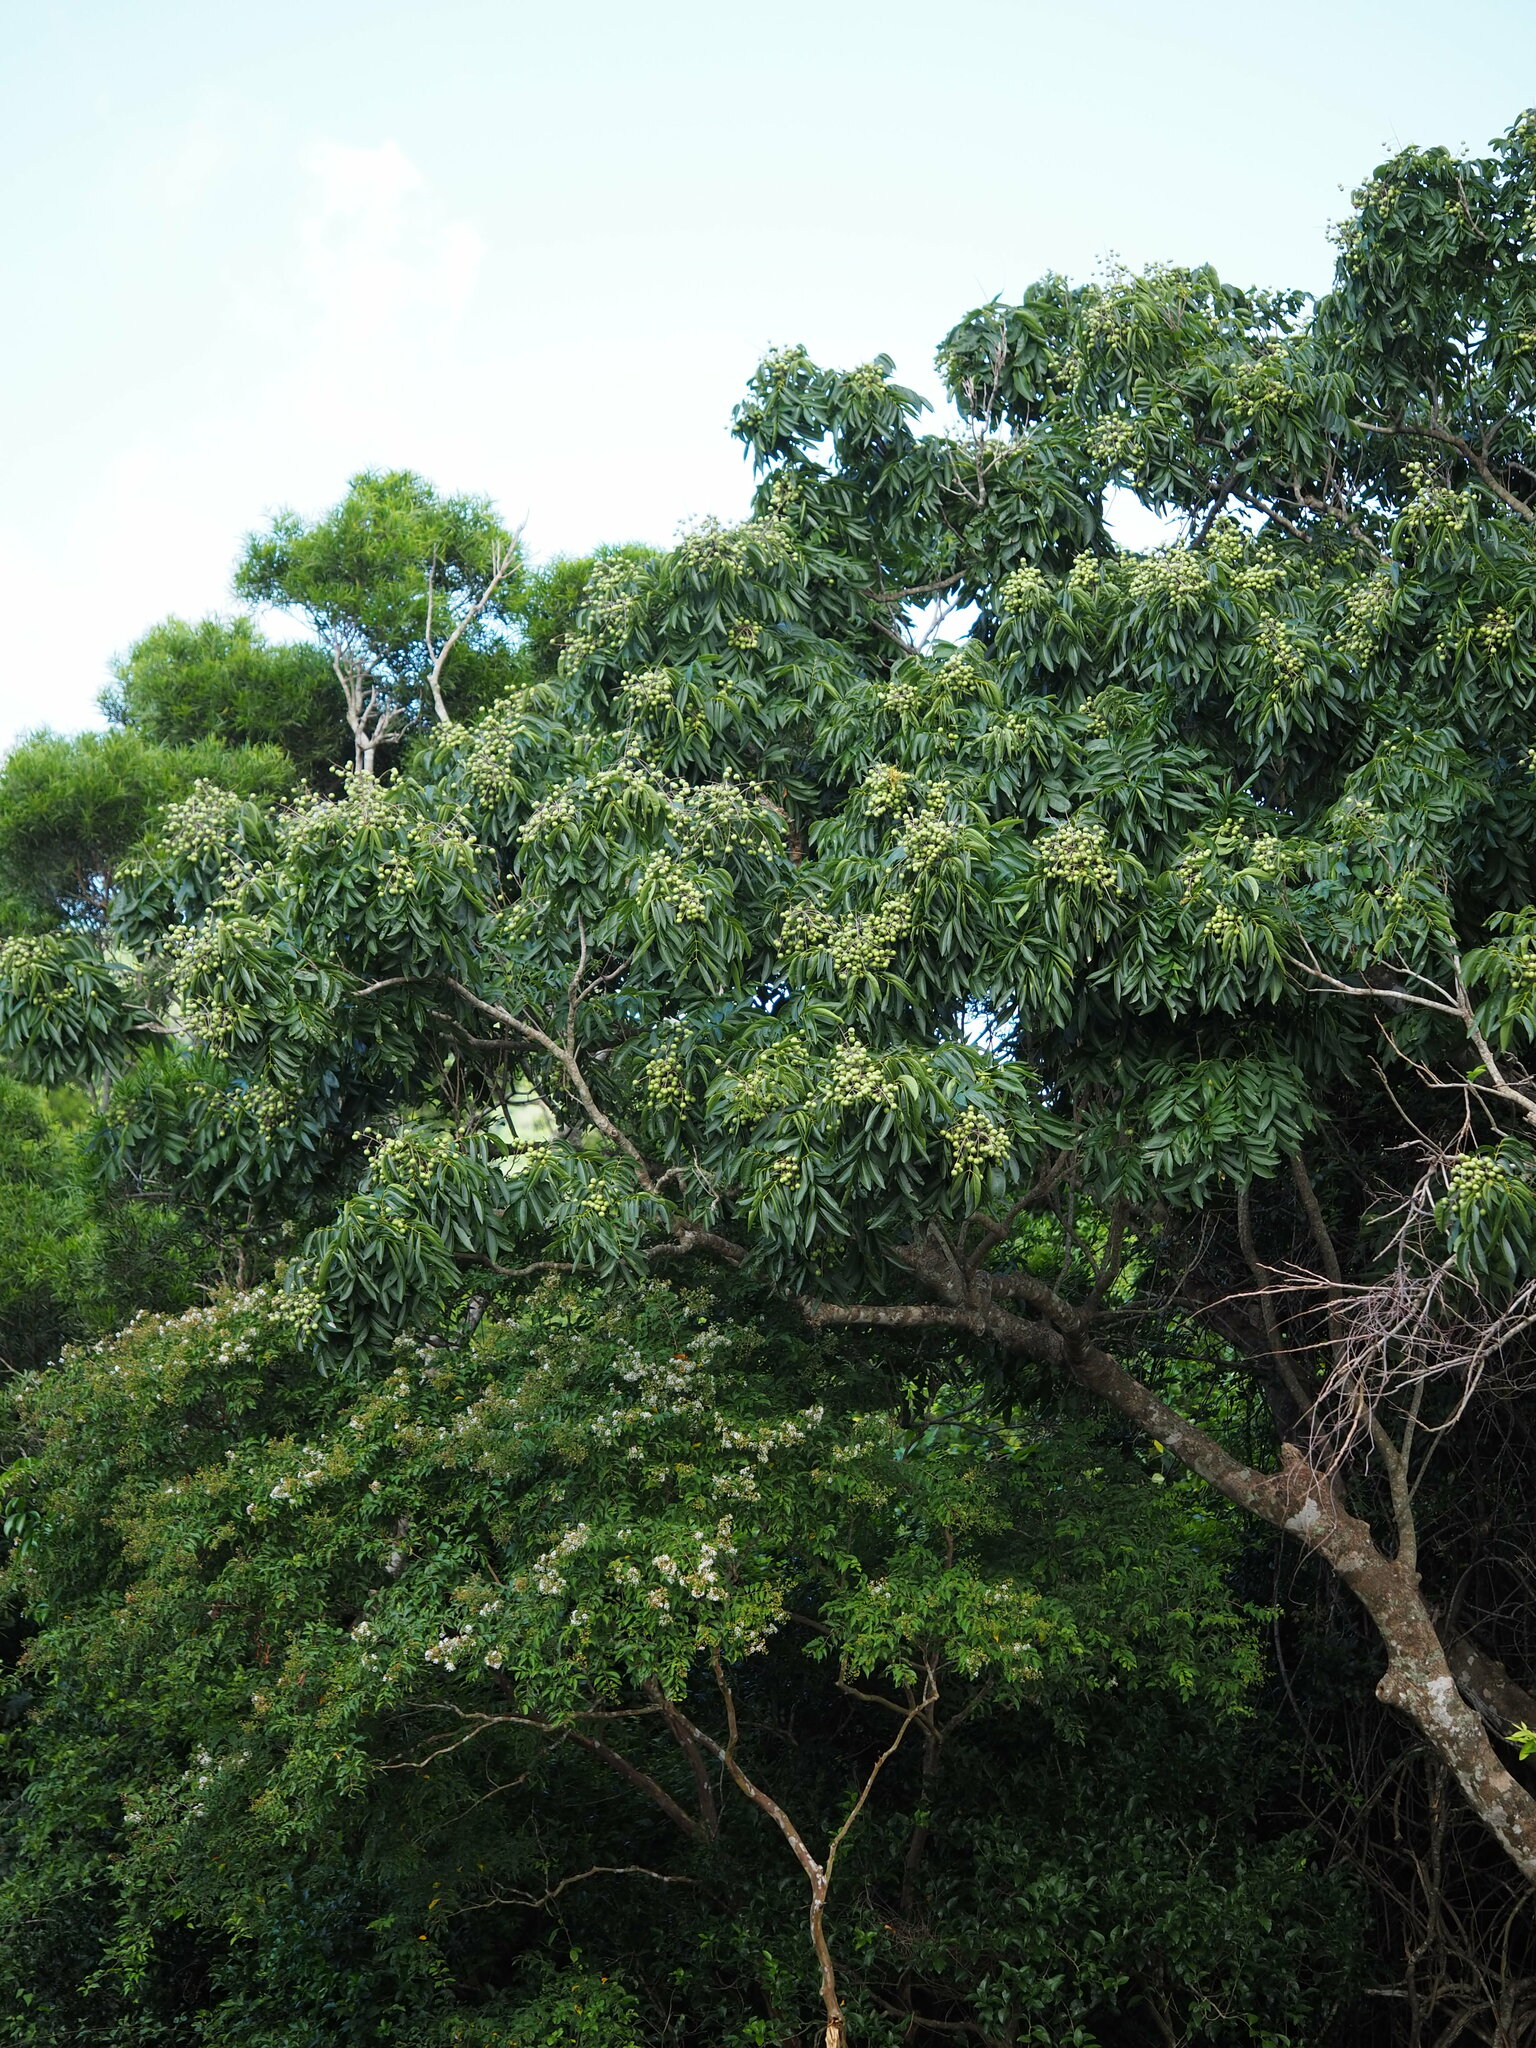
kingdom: Plantae
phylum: Tracheophyta
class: Magnoliopsida
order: Sapindales
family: Sapindaceae
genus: Sapindus
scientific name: Sapindus mukorossi
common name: Chinese soapberry
